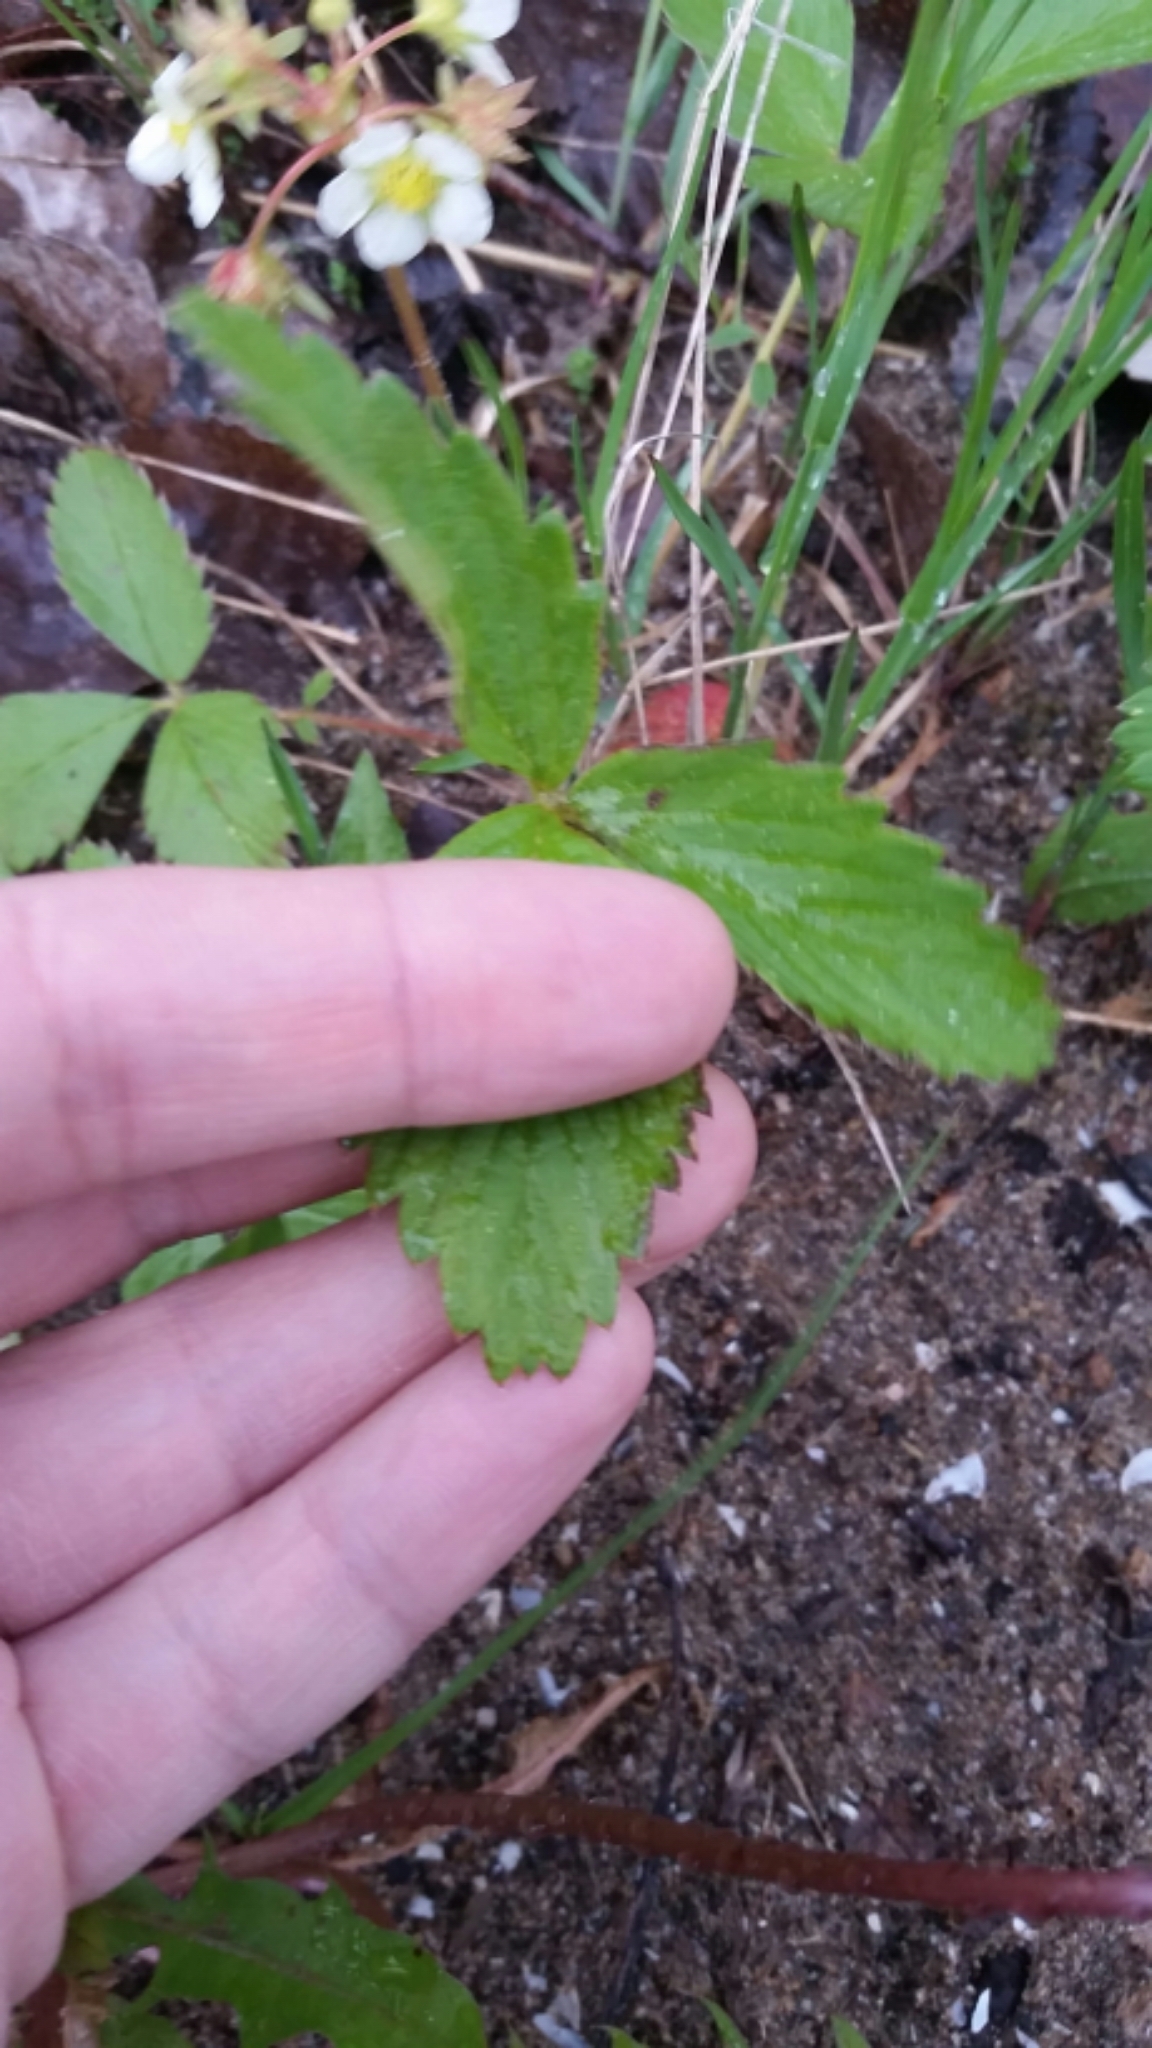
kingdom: Plantae
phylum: Tracheophyta
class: Magnoliopsida
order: Rosales
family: Rosaceae
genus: Fragaria
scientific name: Fragaria virginiana
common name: Thickleaved wild strawberry
